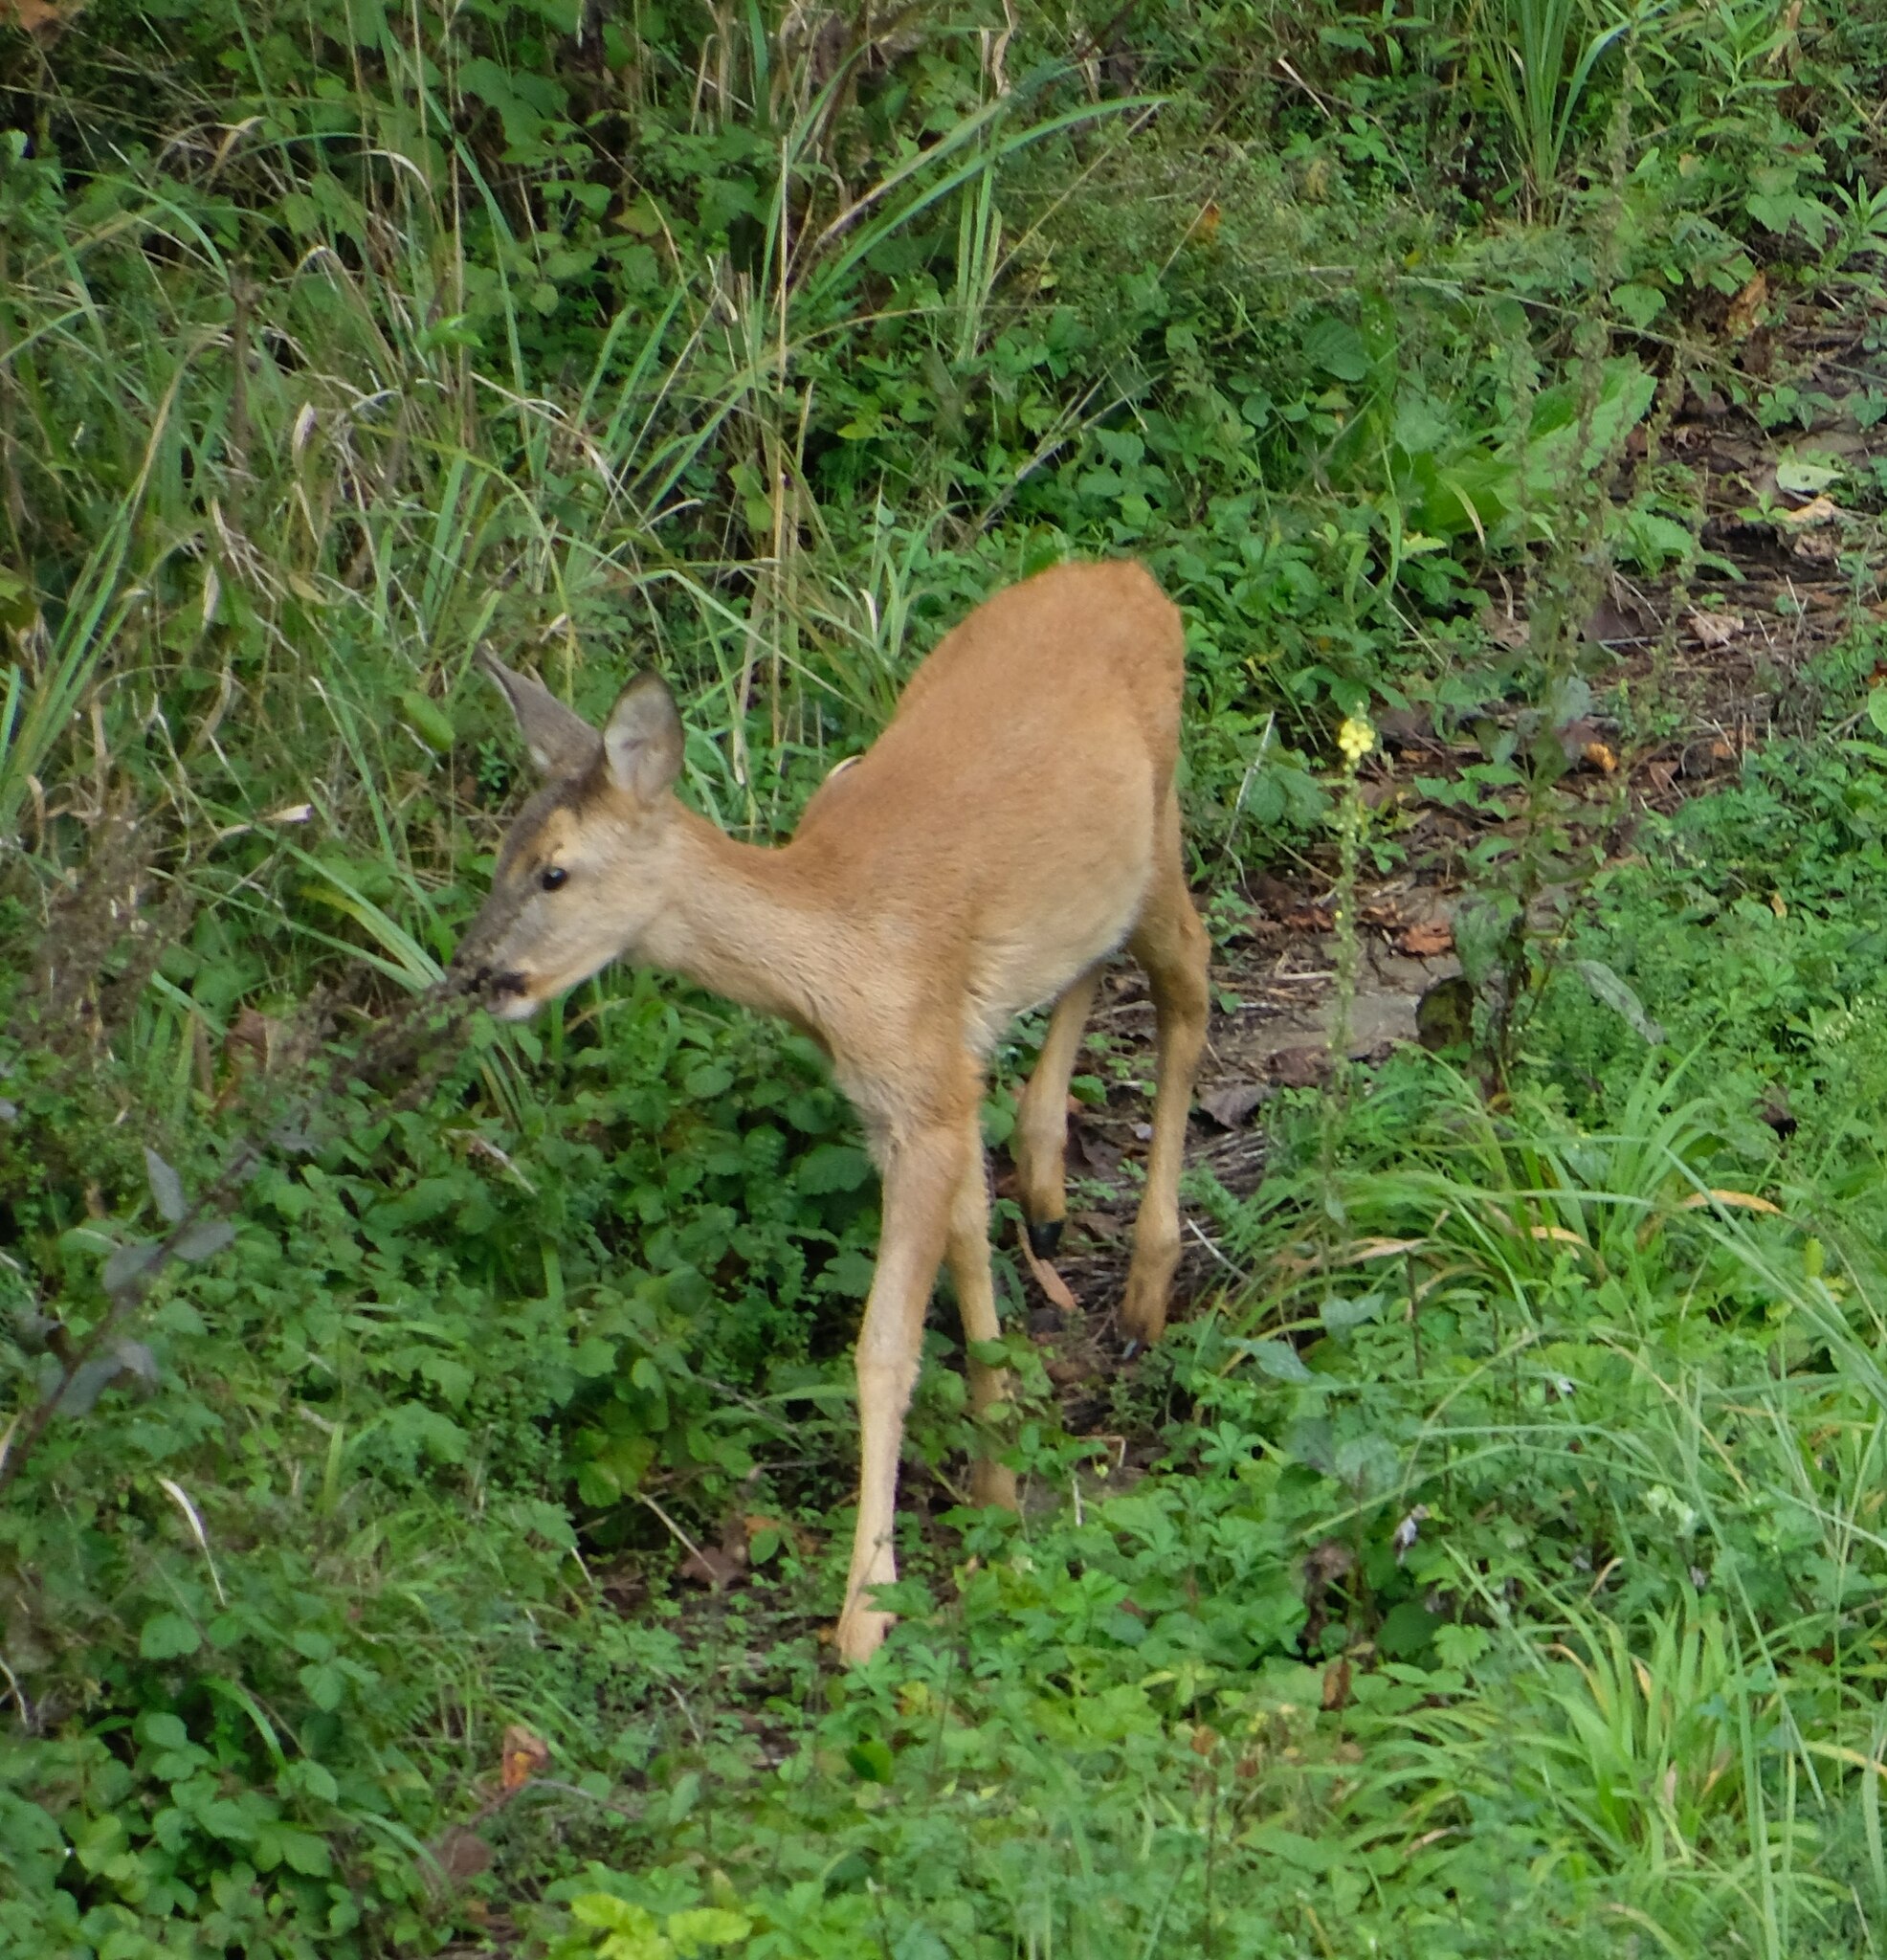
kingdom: Animalia
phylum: Chordata
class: Mammalia
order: Artiodactyla
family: Cervidae
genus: Capreolus
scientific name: Capreolus capreolus
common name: Western roe deer
